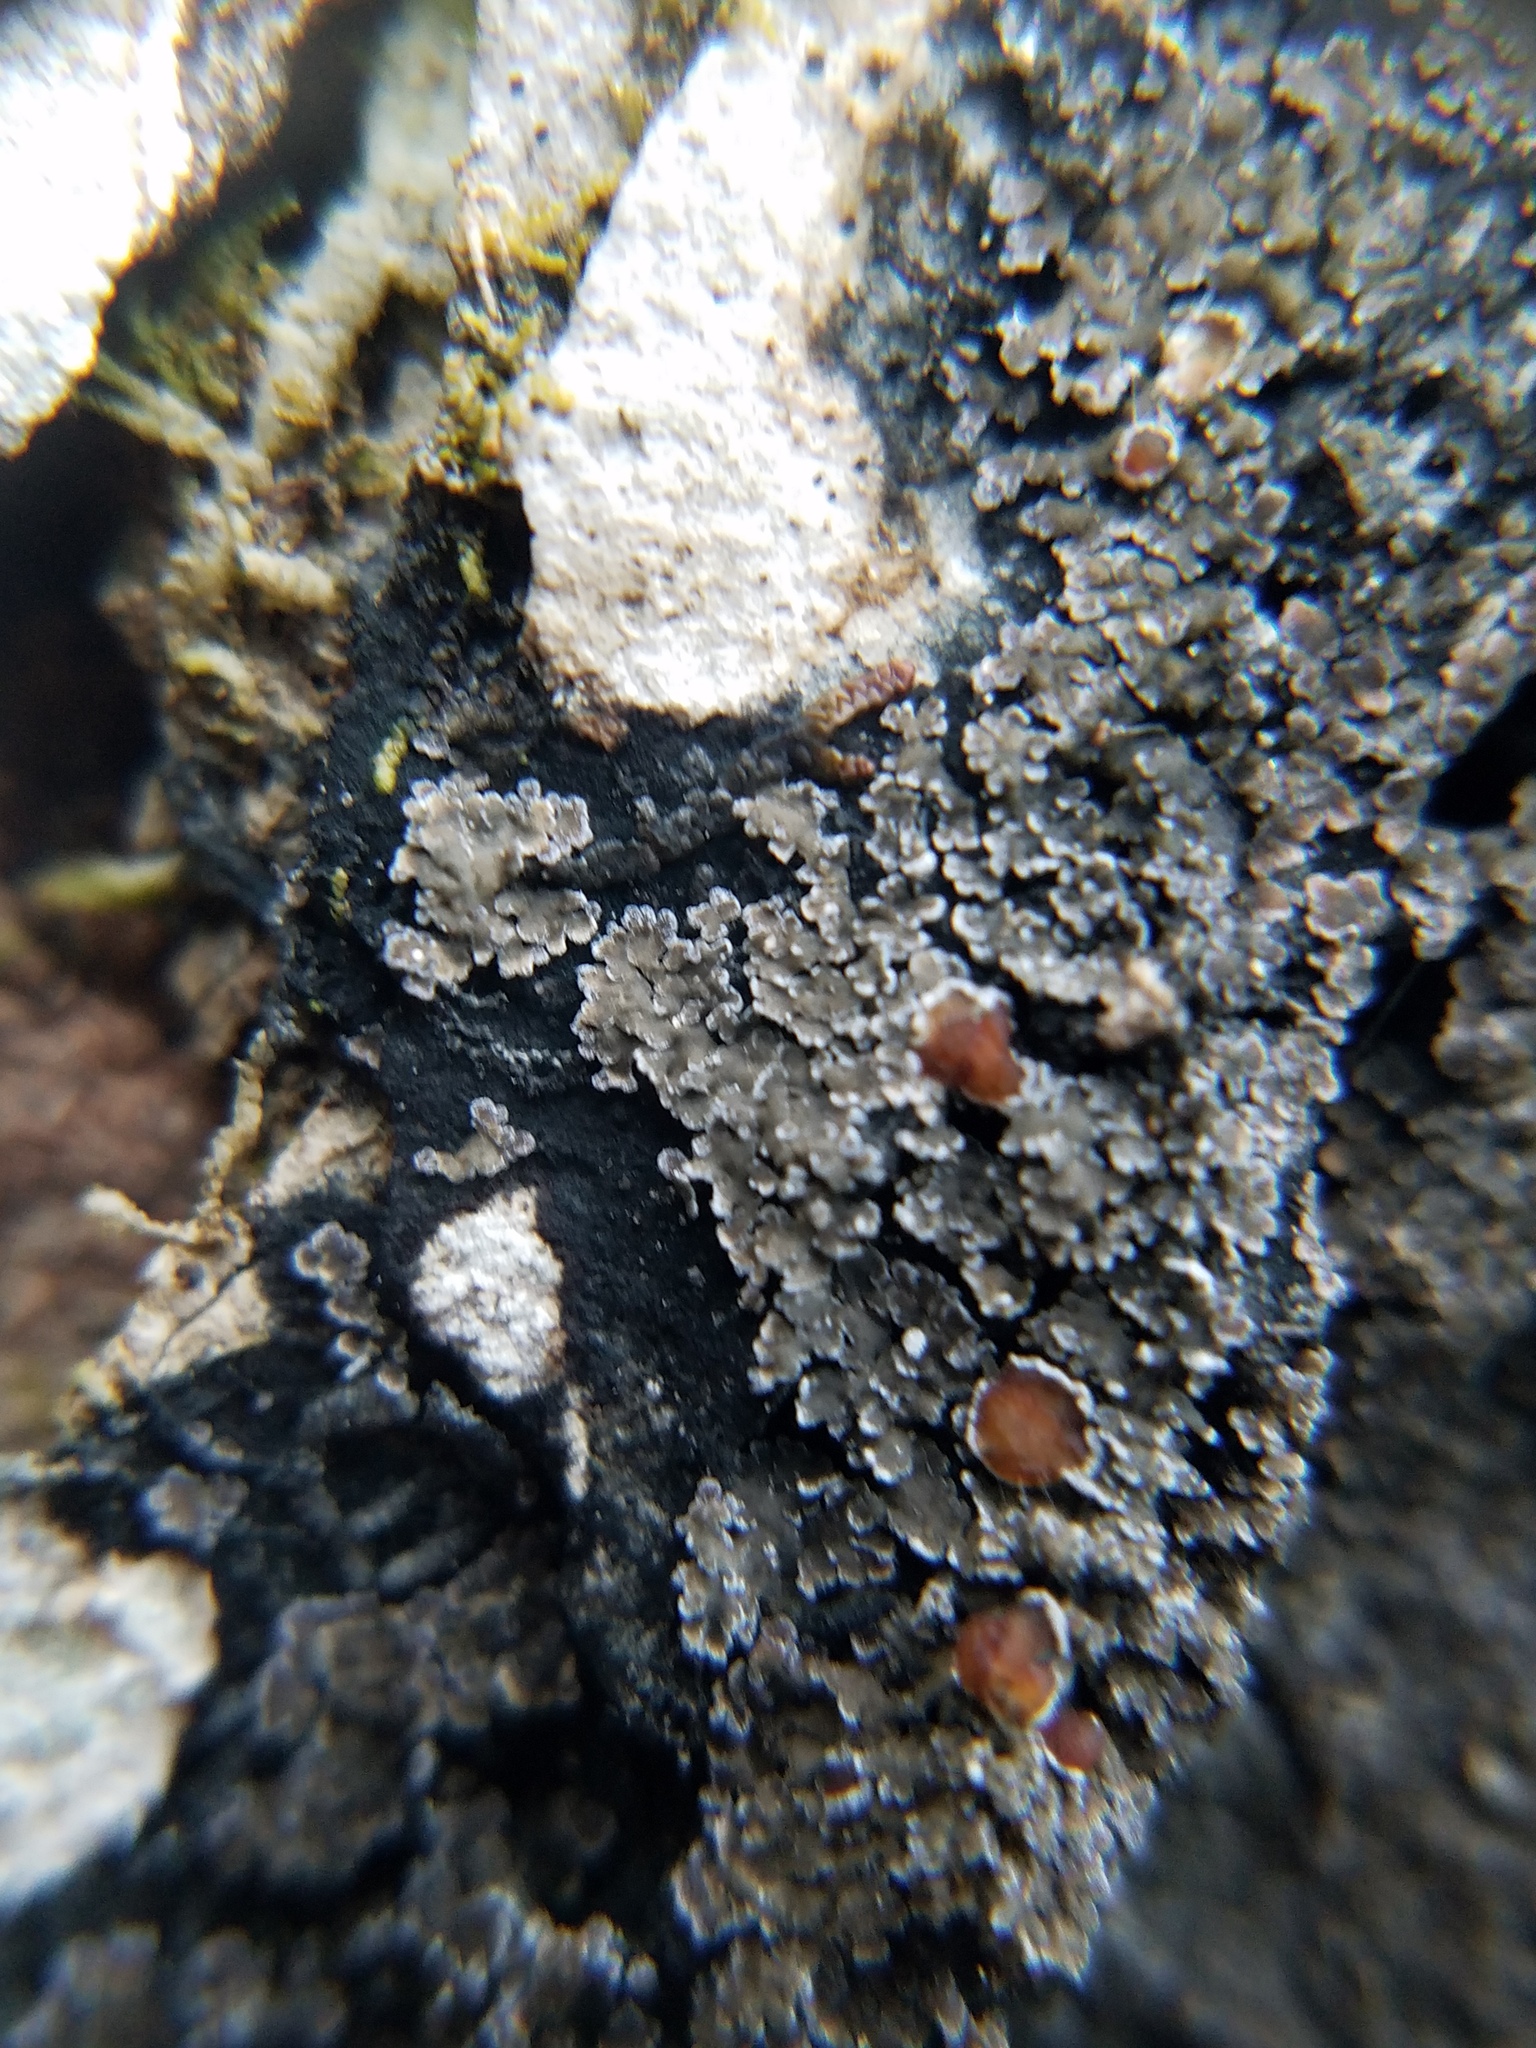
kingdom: Fungi
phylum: Ascomycota
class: Lecanoromycetes
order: Peltigerales
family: Pannariaceae
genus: Fuscopannaria
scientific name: Fuscopannaria leucosticta
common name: Rimmed shingle lichen
